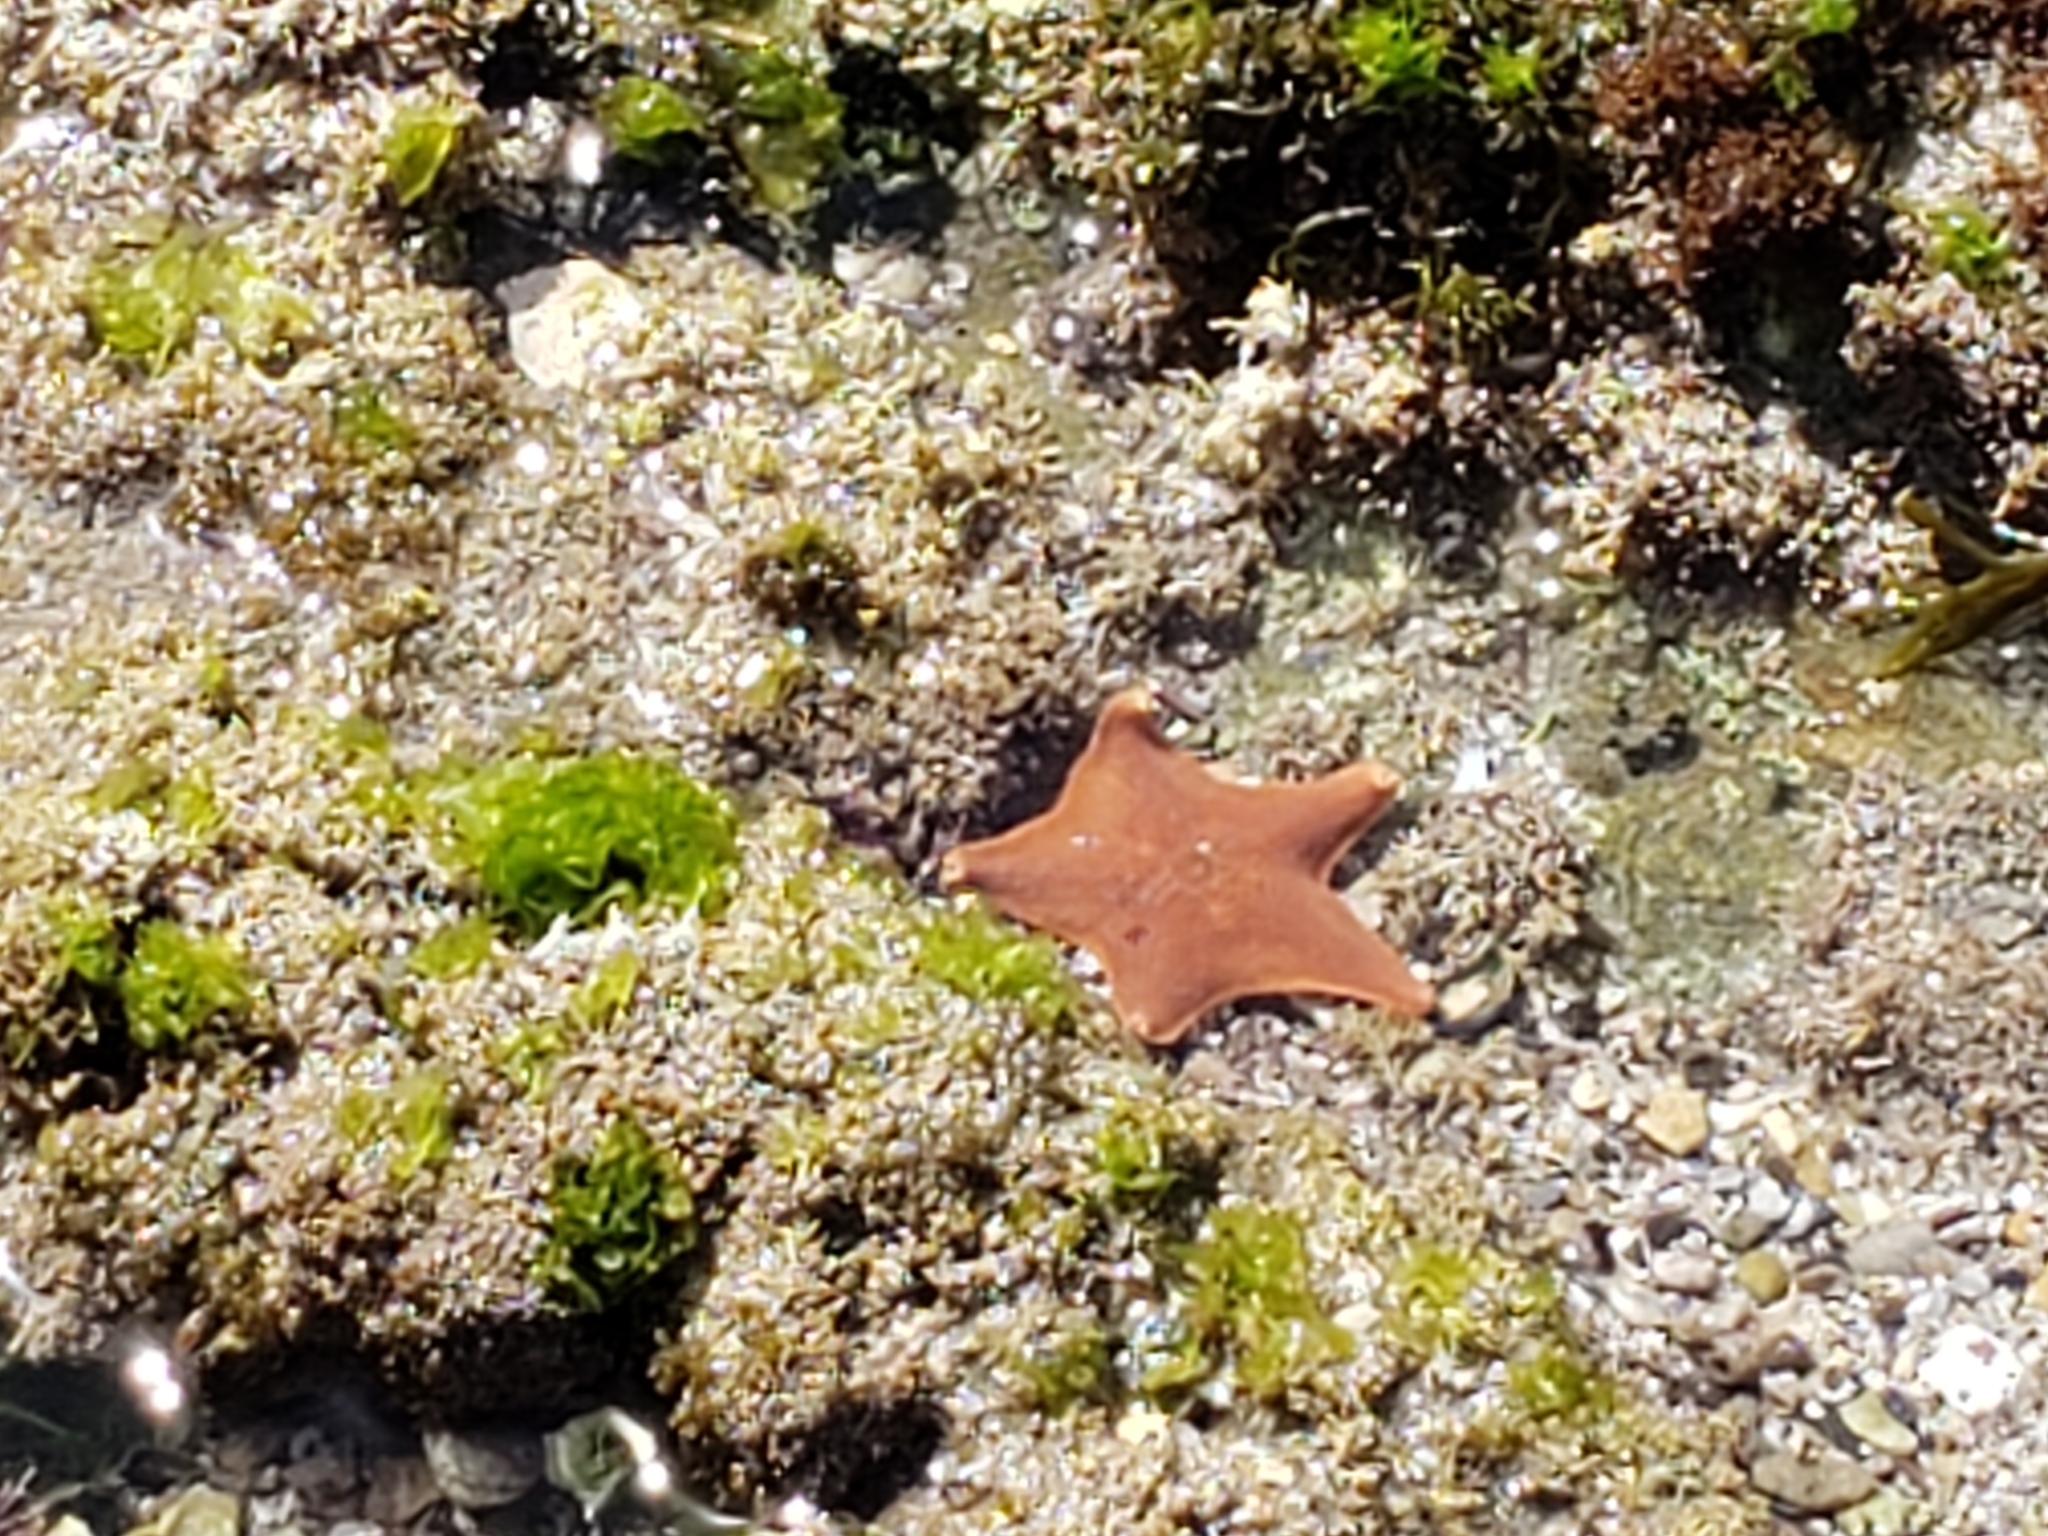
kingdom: Animalia
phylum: Echinodermata
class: Asteroidea
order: Valvatida
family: Asterinidae
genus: Patiria
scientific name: Patiria miniata
